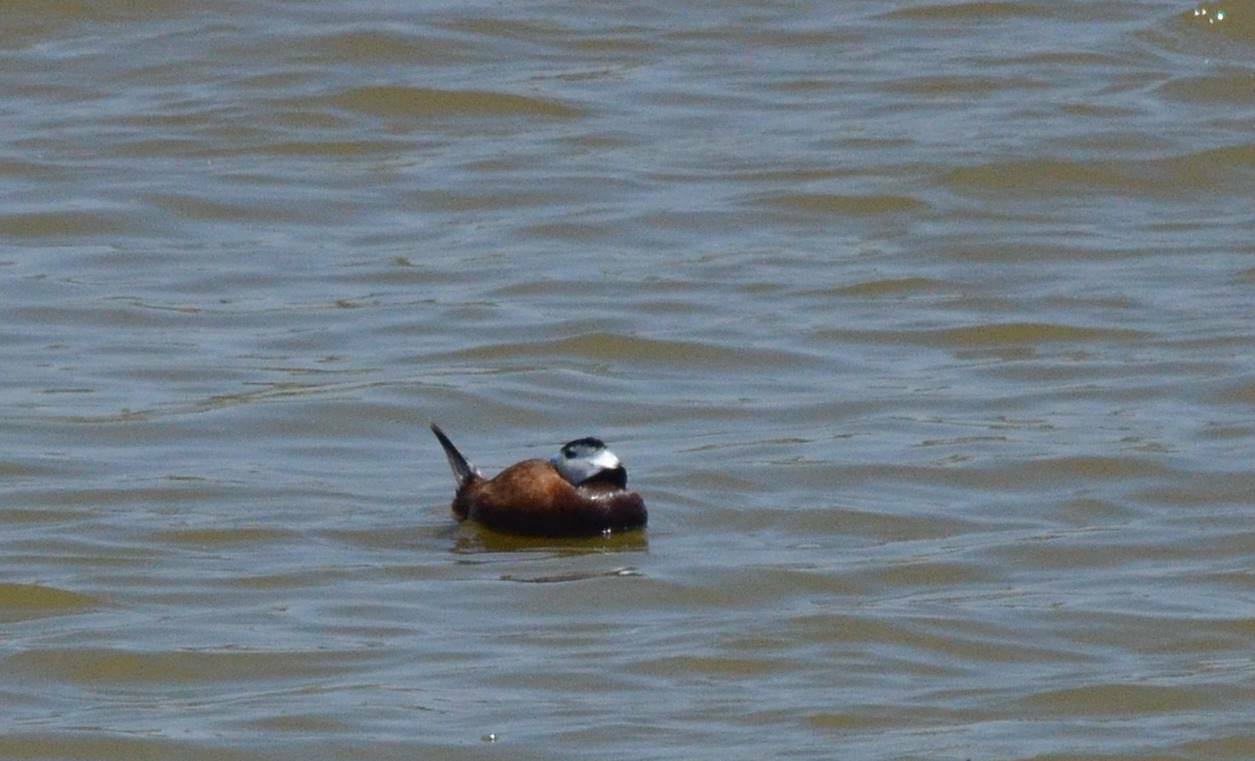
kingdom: Animalia
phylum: Chordata
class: Aves
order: Anseriformes
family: Anatidae
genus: Oxyura
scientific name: Oxyura leucocephala
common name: White-headed duck
